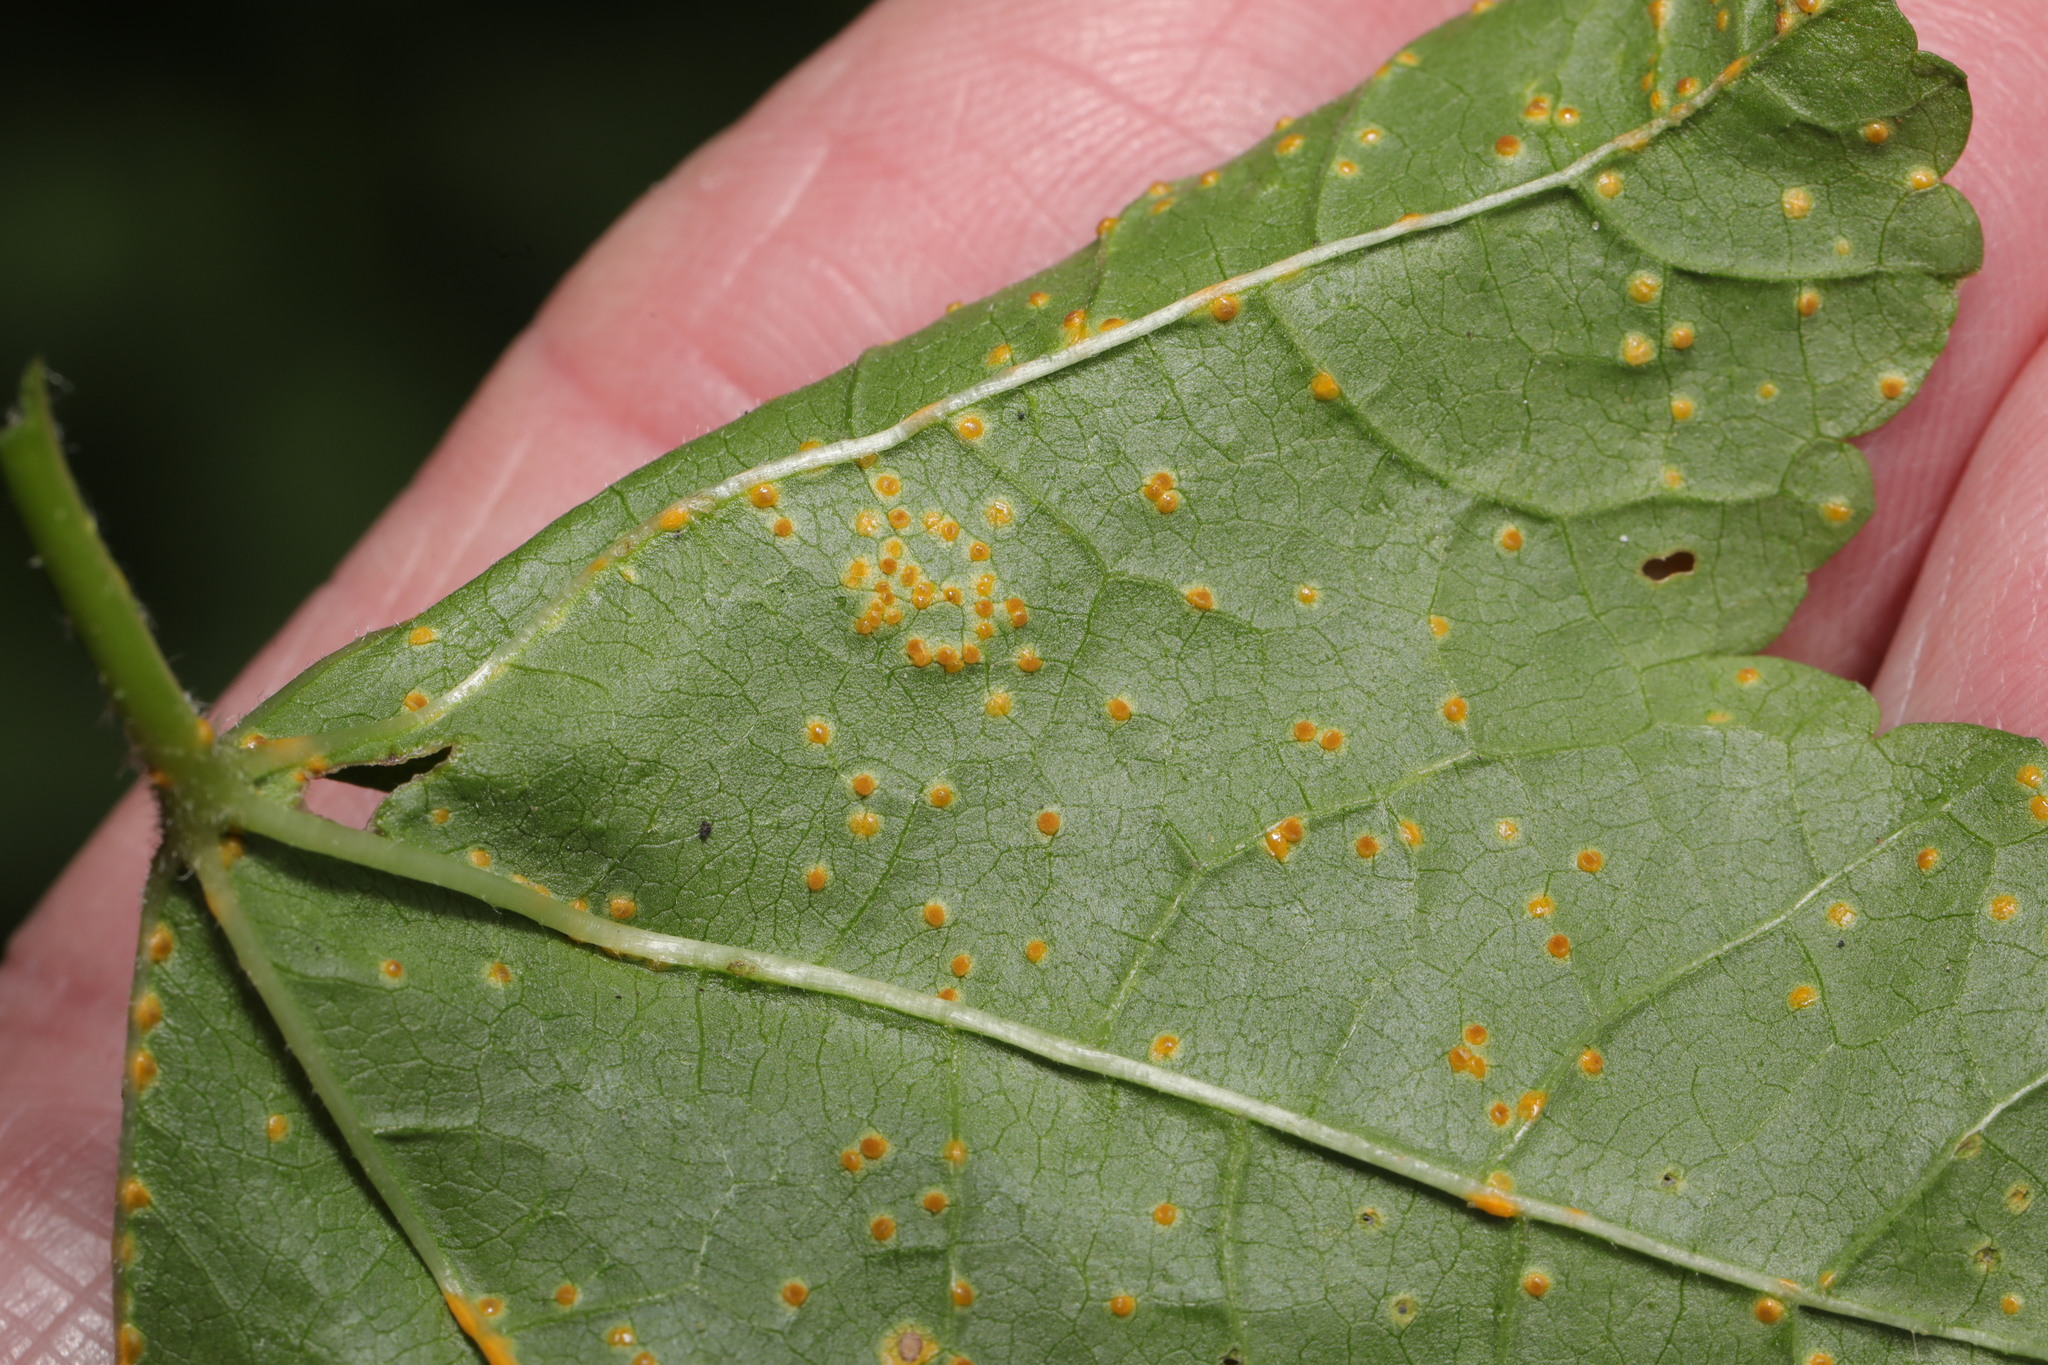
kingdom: Fungi
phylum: Basidiomycota
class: Pucciniomycetes
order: Pucciniales
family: Pucciniaceae
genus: Puccinia
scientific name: Puccinia malvacearum
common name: Hollyhock rust
